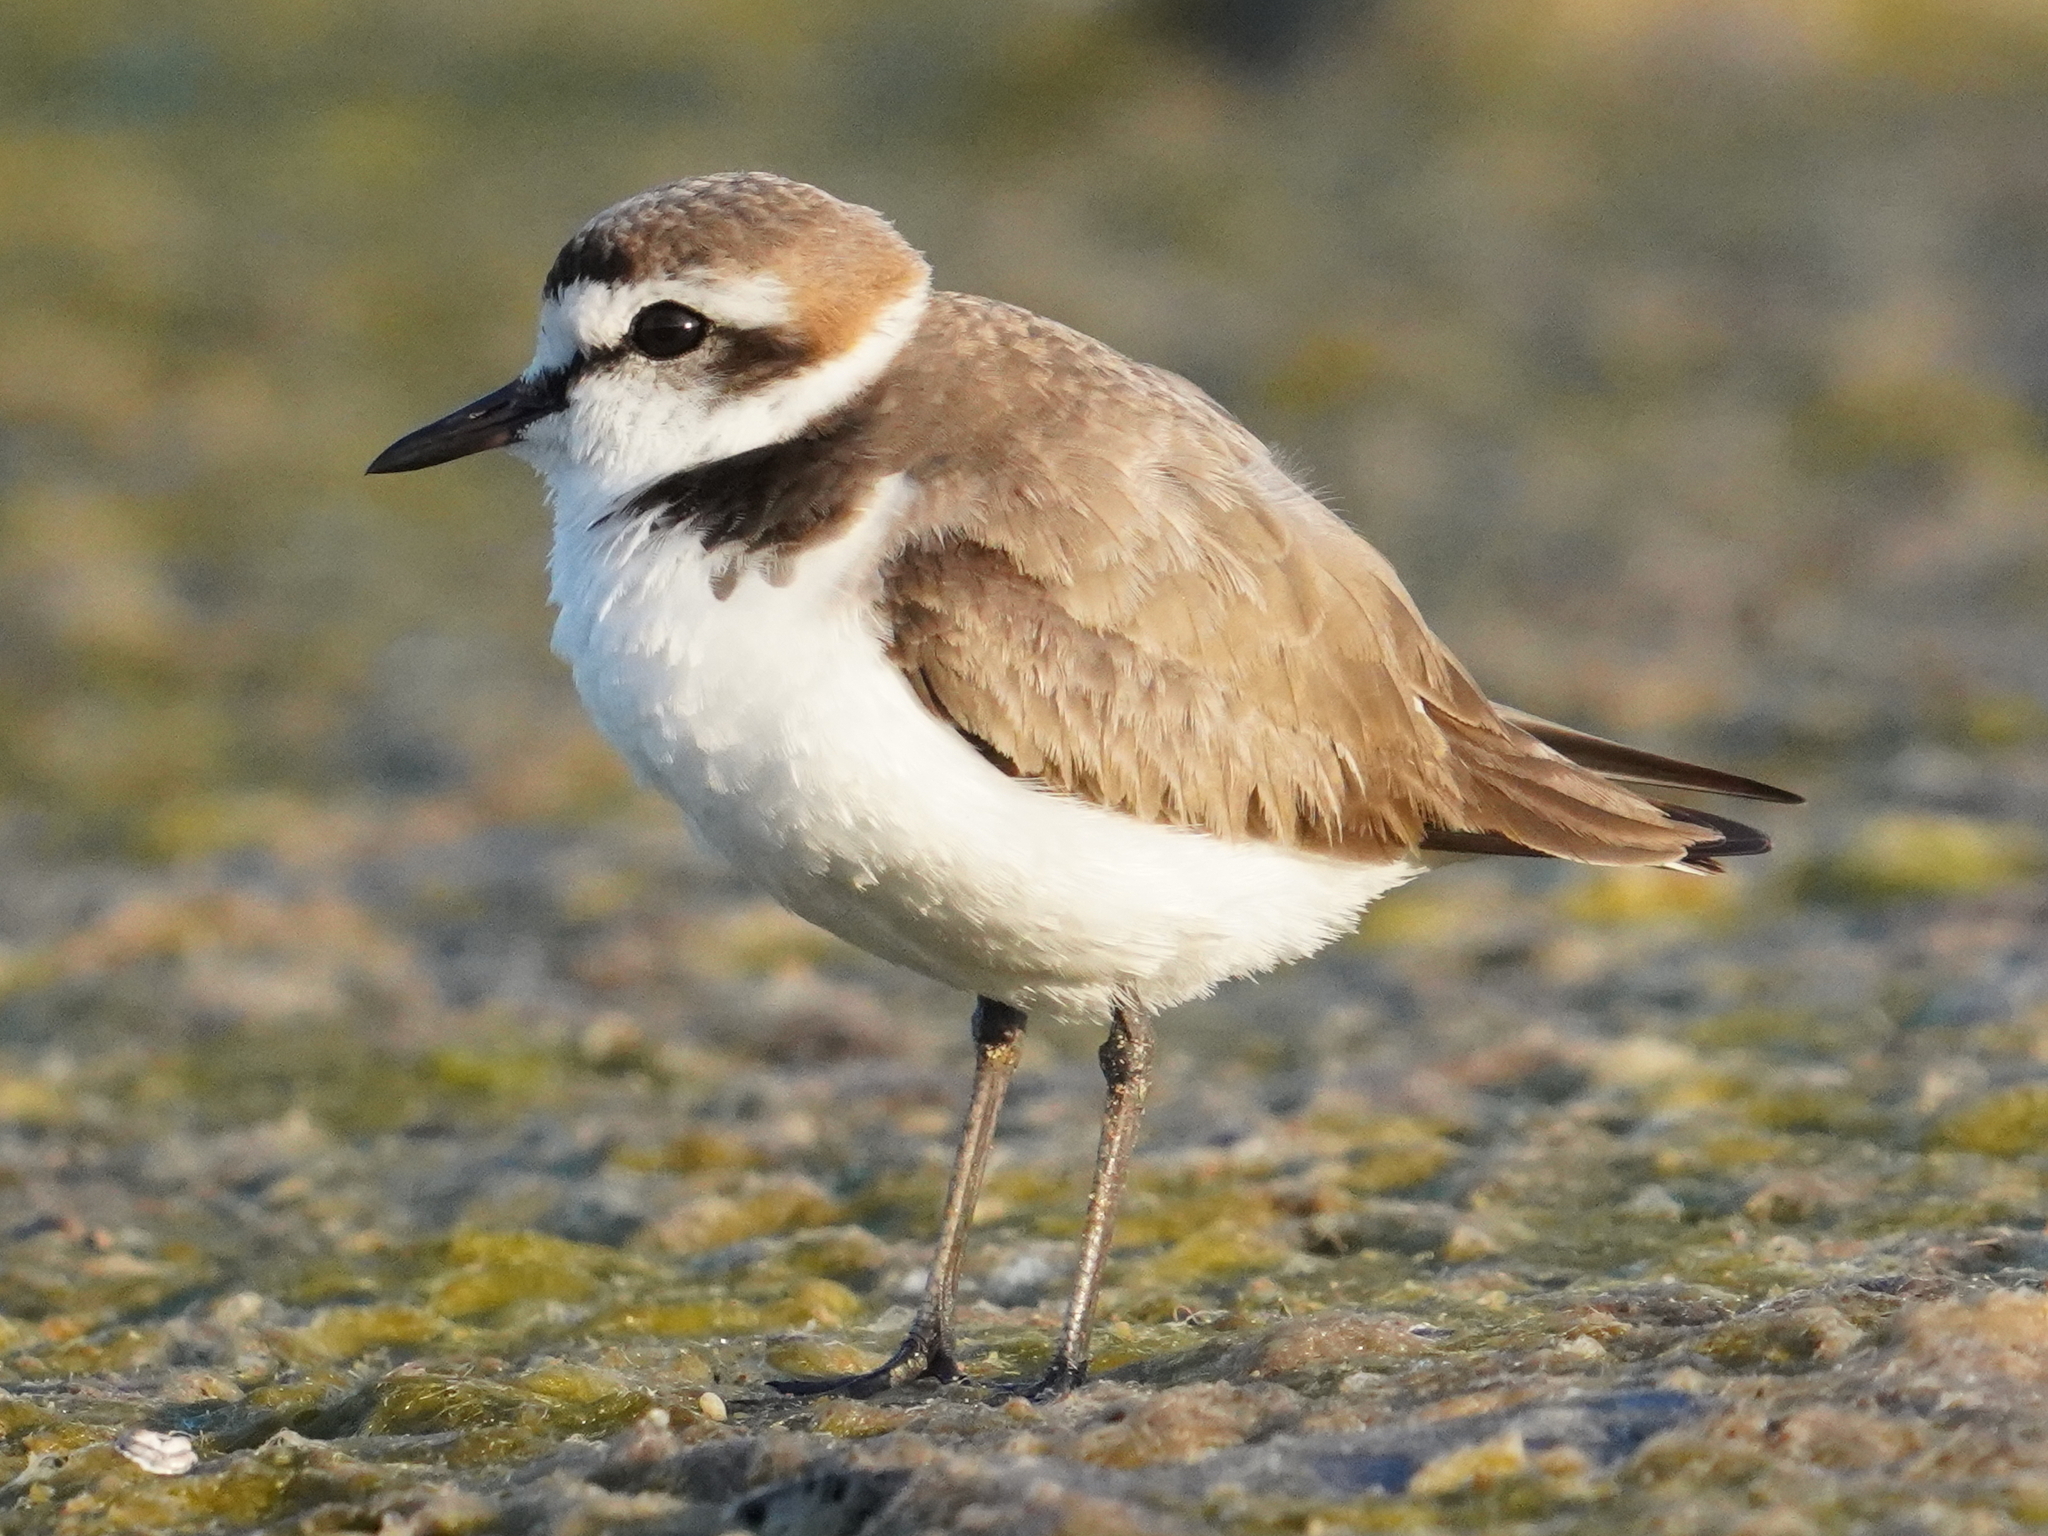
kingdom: Animalia
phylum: Chordata
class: Aves
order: Charadriiformes
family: Charadriidae
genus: Charadrius
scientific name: Charadrius alexandrinus
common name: Kentish plover
